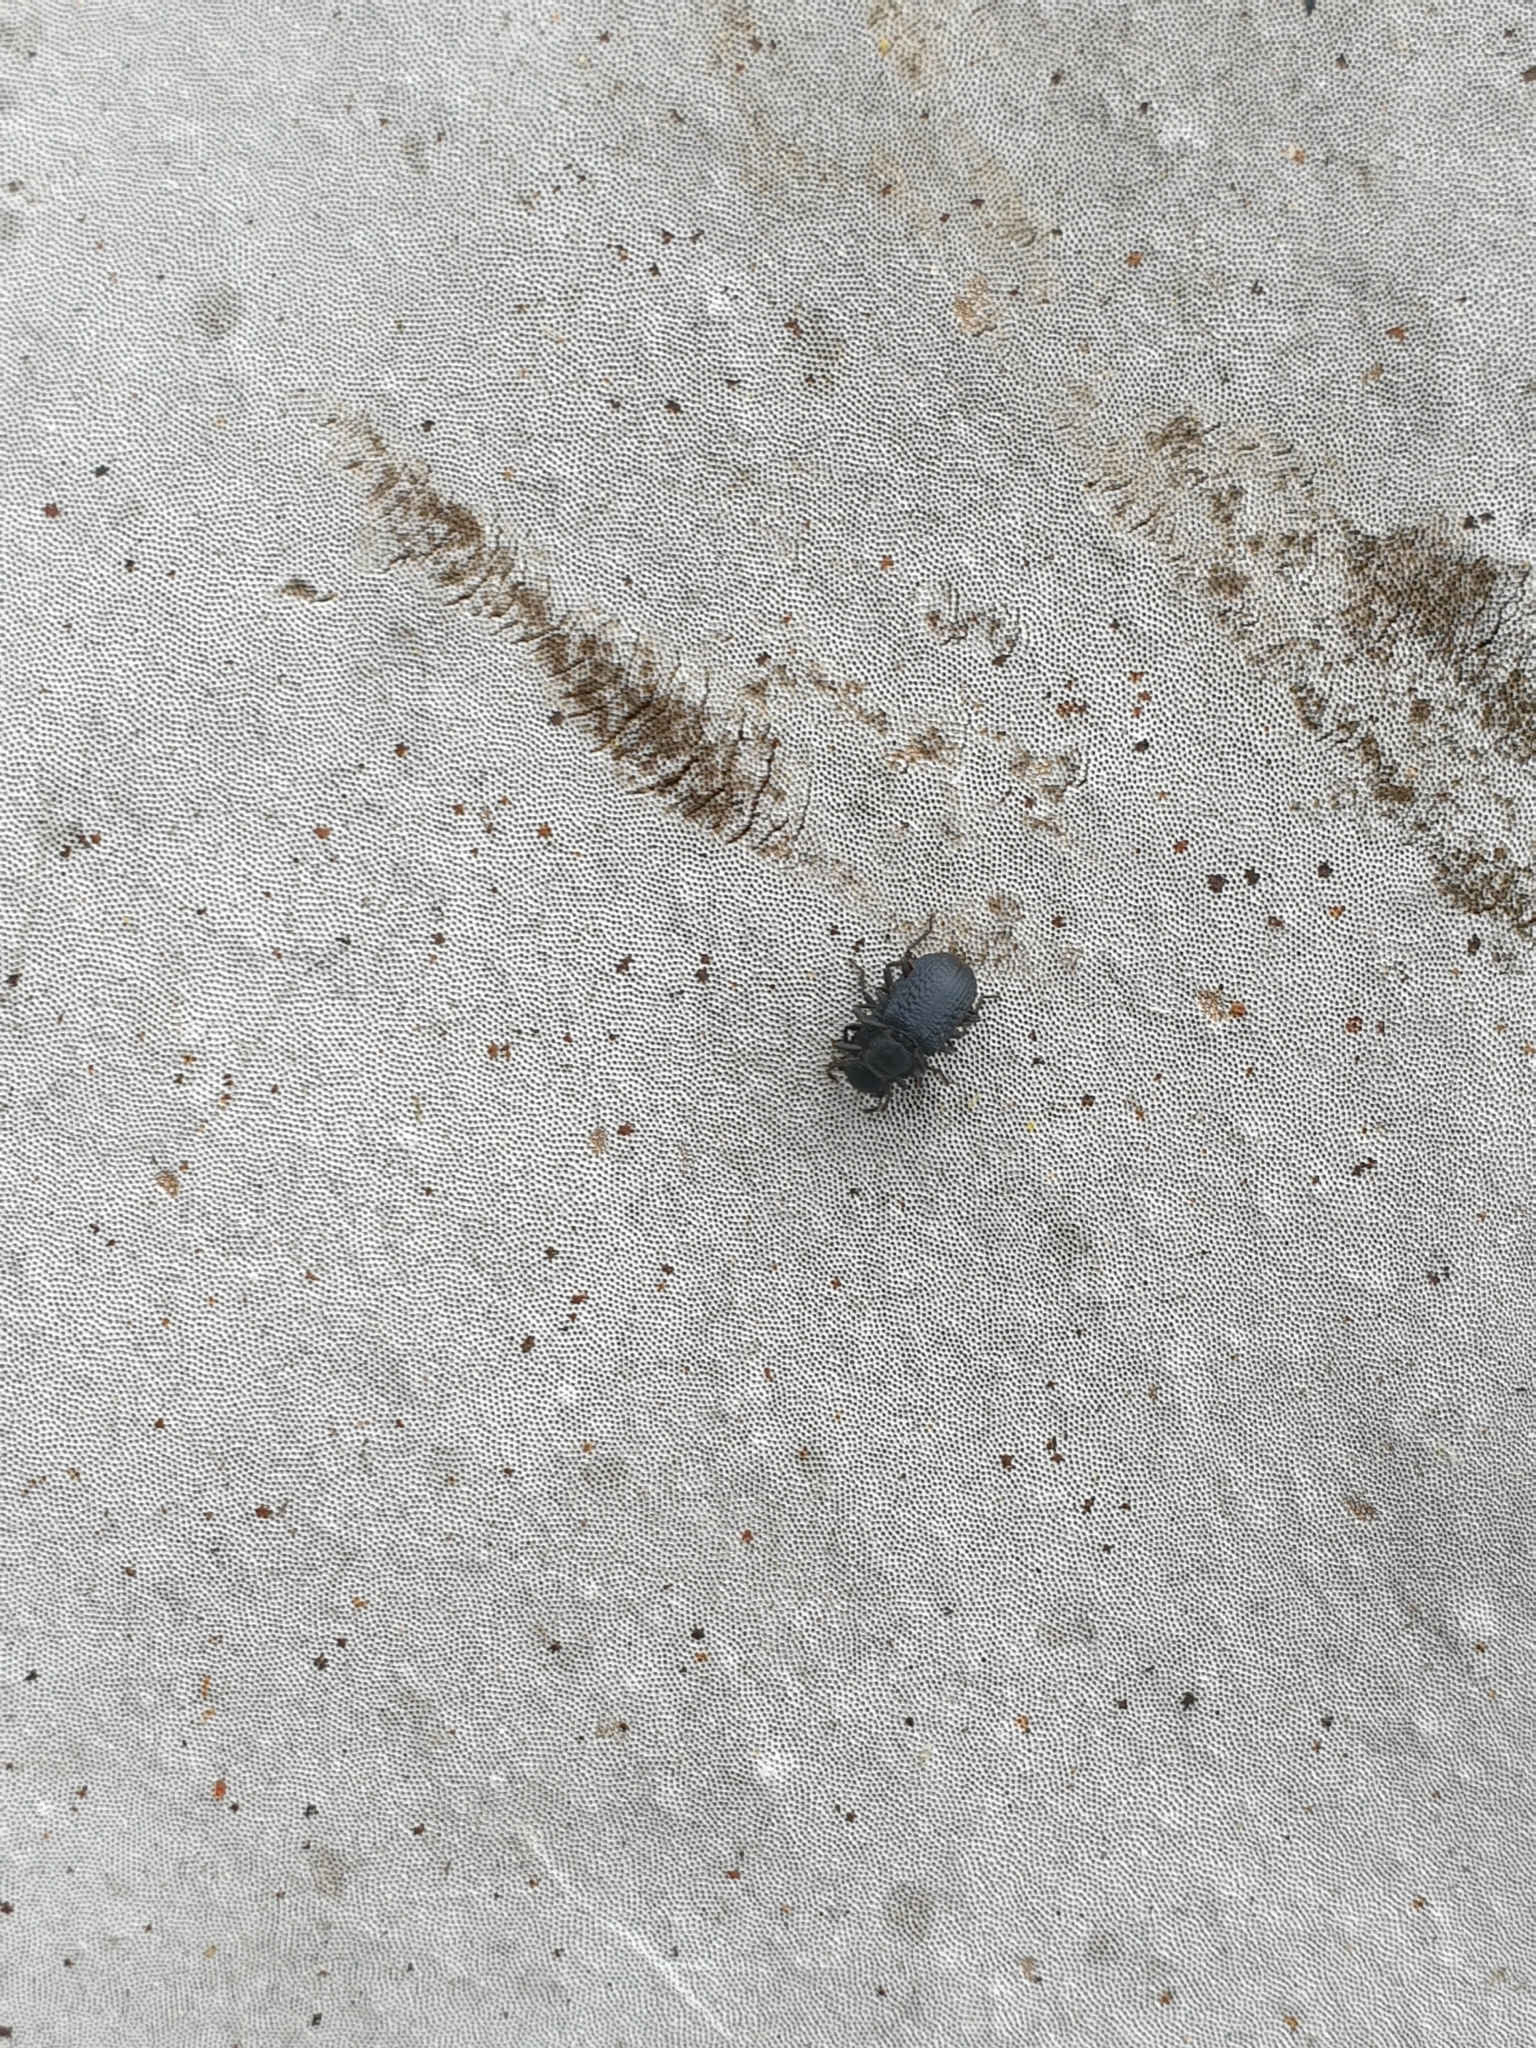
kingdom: Animalia
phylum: Arthropoda
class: Insecta
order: Coleoptera
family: Tenebrionidae
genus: Bolitophagus
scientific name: Bolitophagus reticulatus
